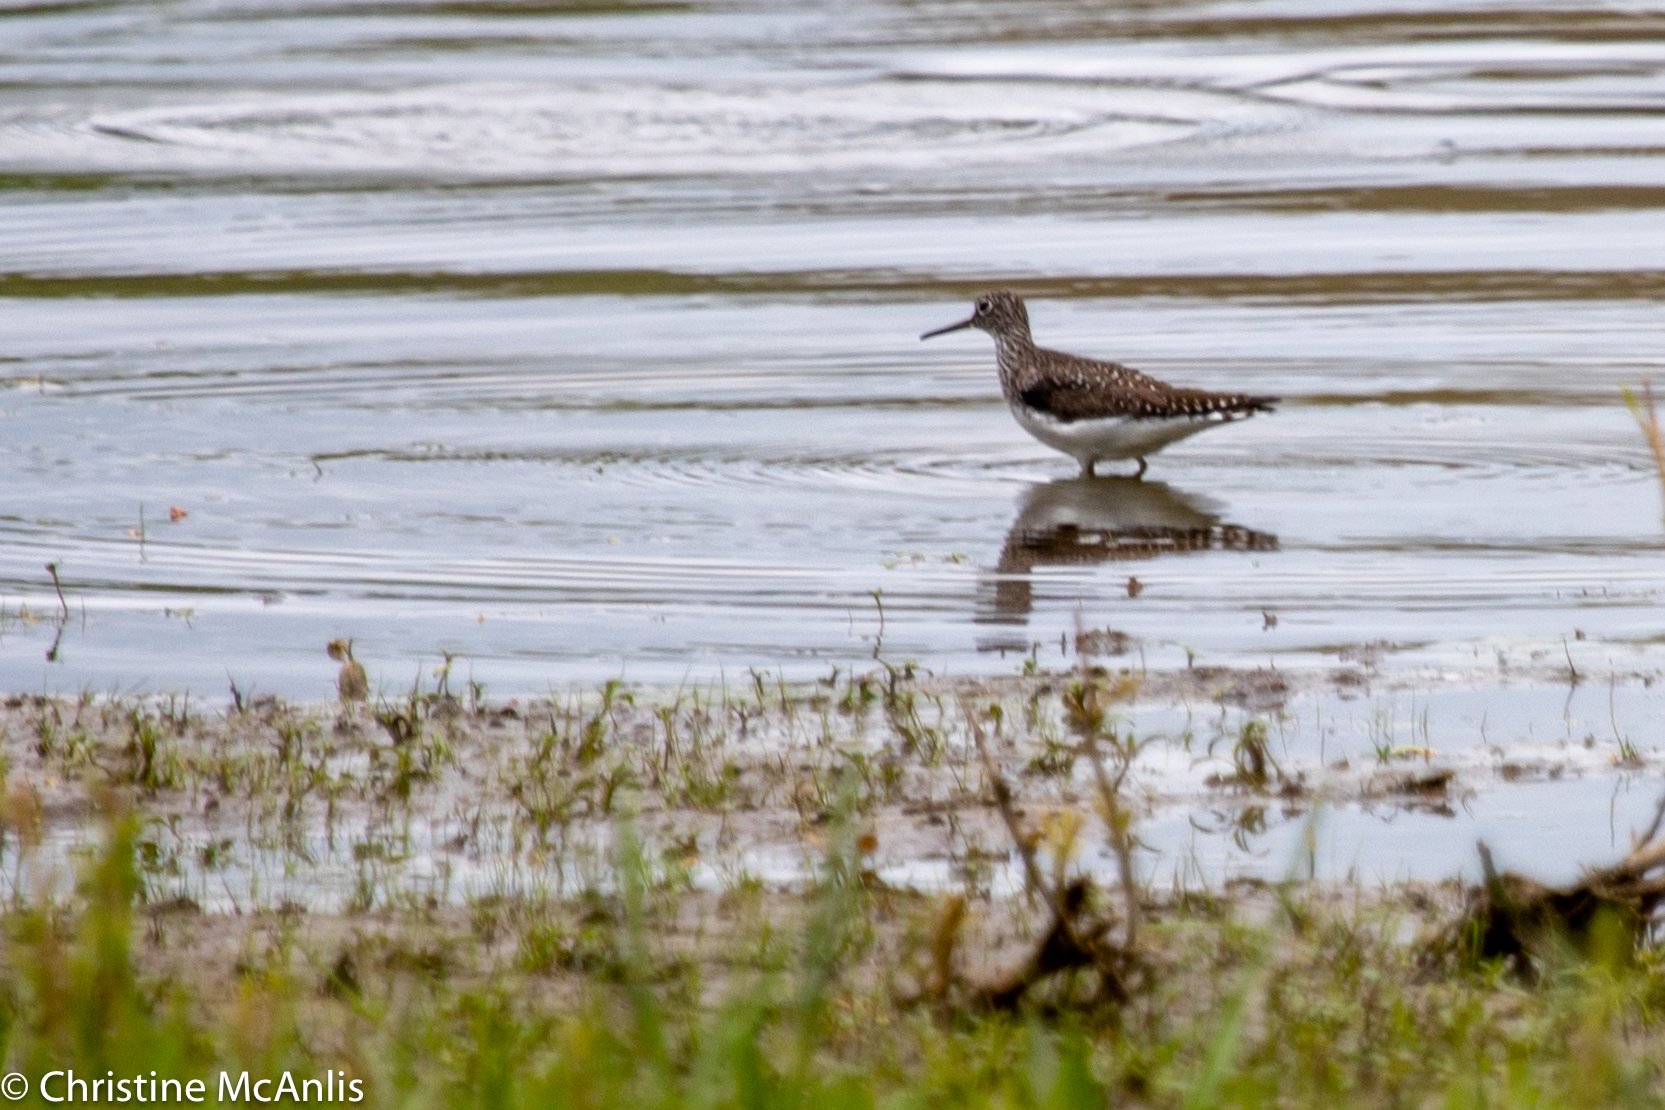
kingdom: Animalia
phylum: Chordata
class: Aves
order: Charadriiformes
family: Scolopacidae
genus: Tringa
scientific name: Tringa solitaria
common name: Solitary sandpiper
